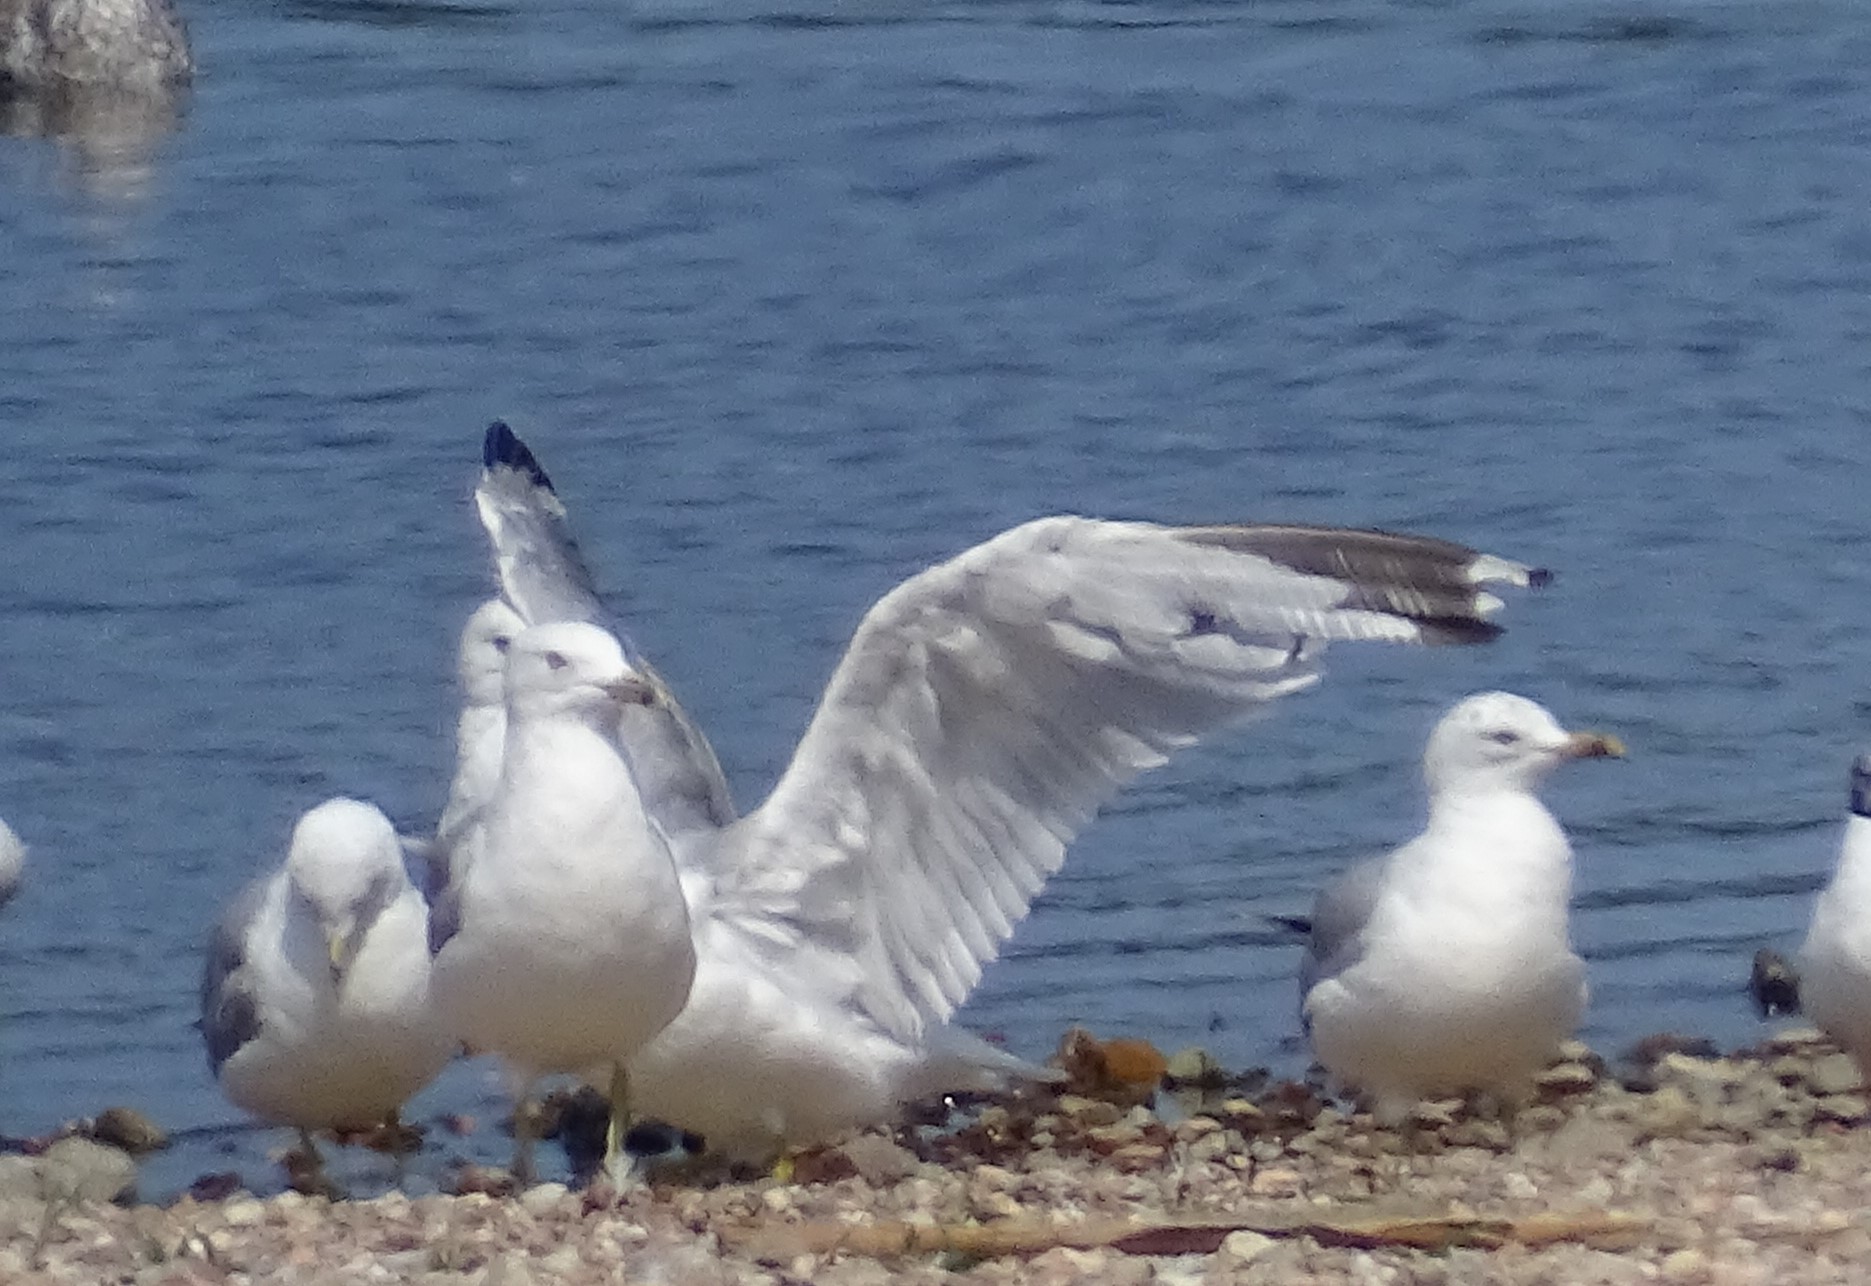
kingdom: Animalia
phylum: Chordata
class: Aves
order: Charadriiformes
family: Laridae
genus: Larus
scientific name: Larus delawarensis
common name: Ring-billed gull
